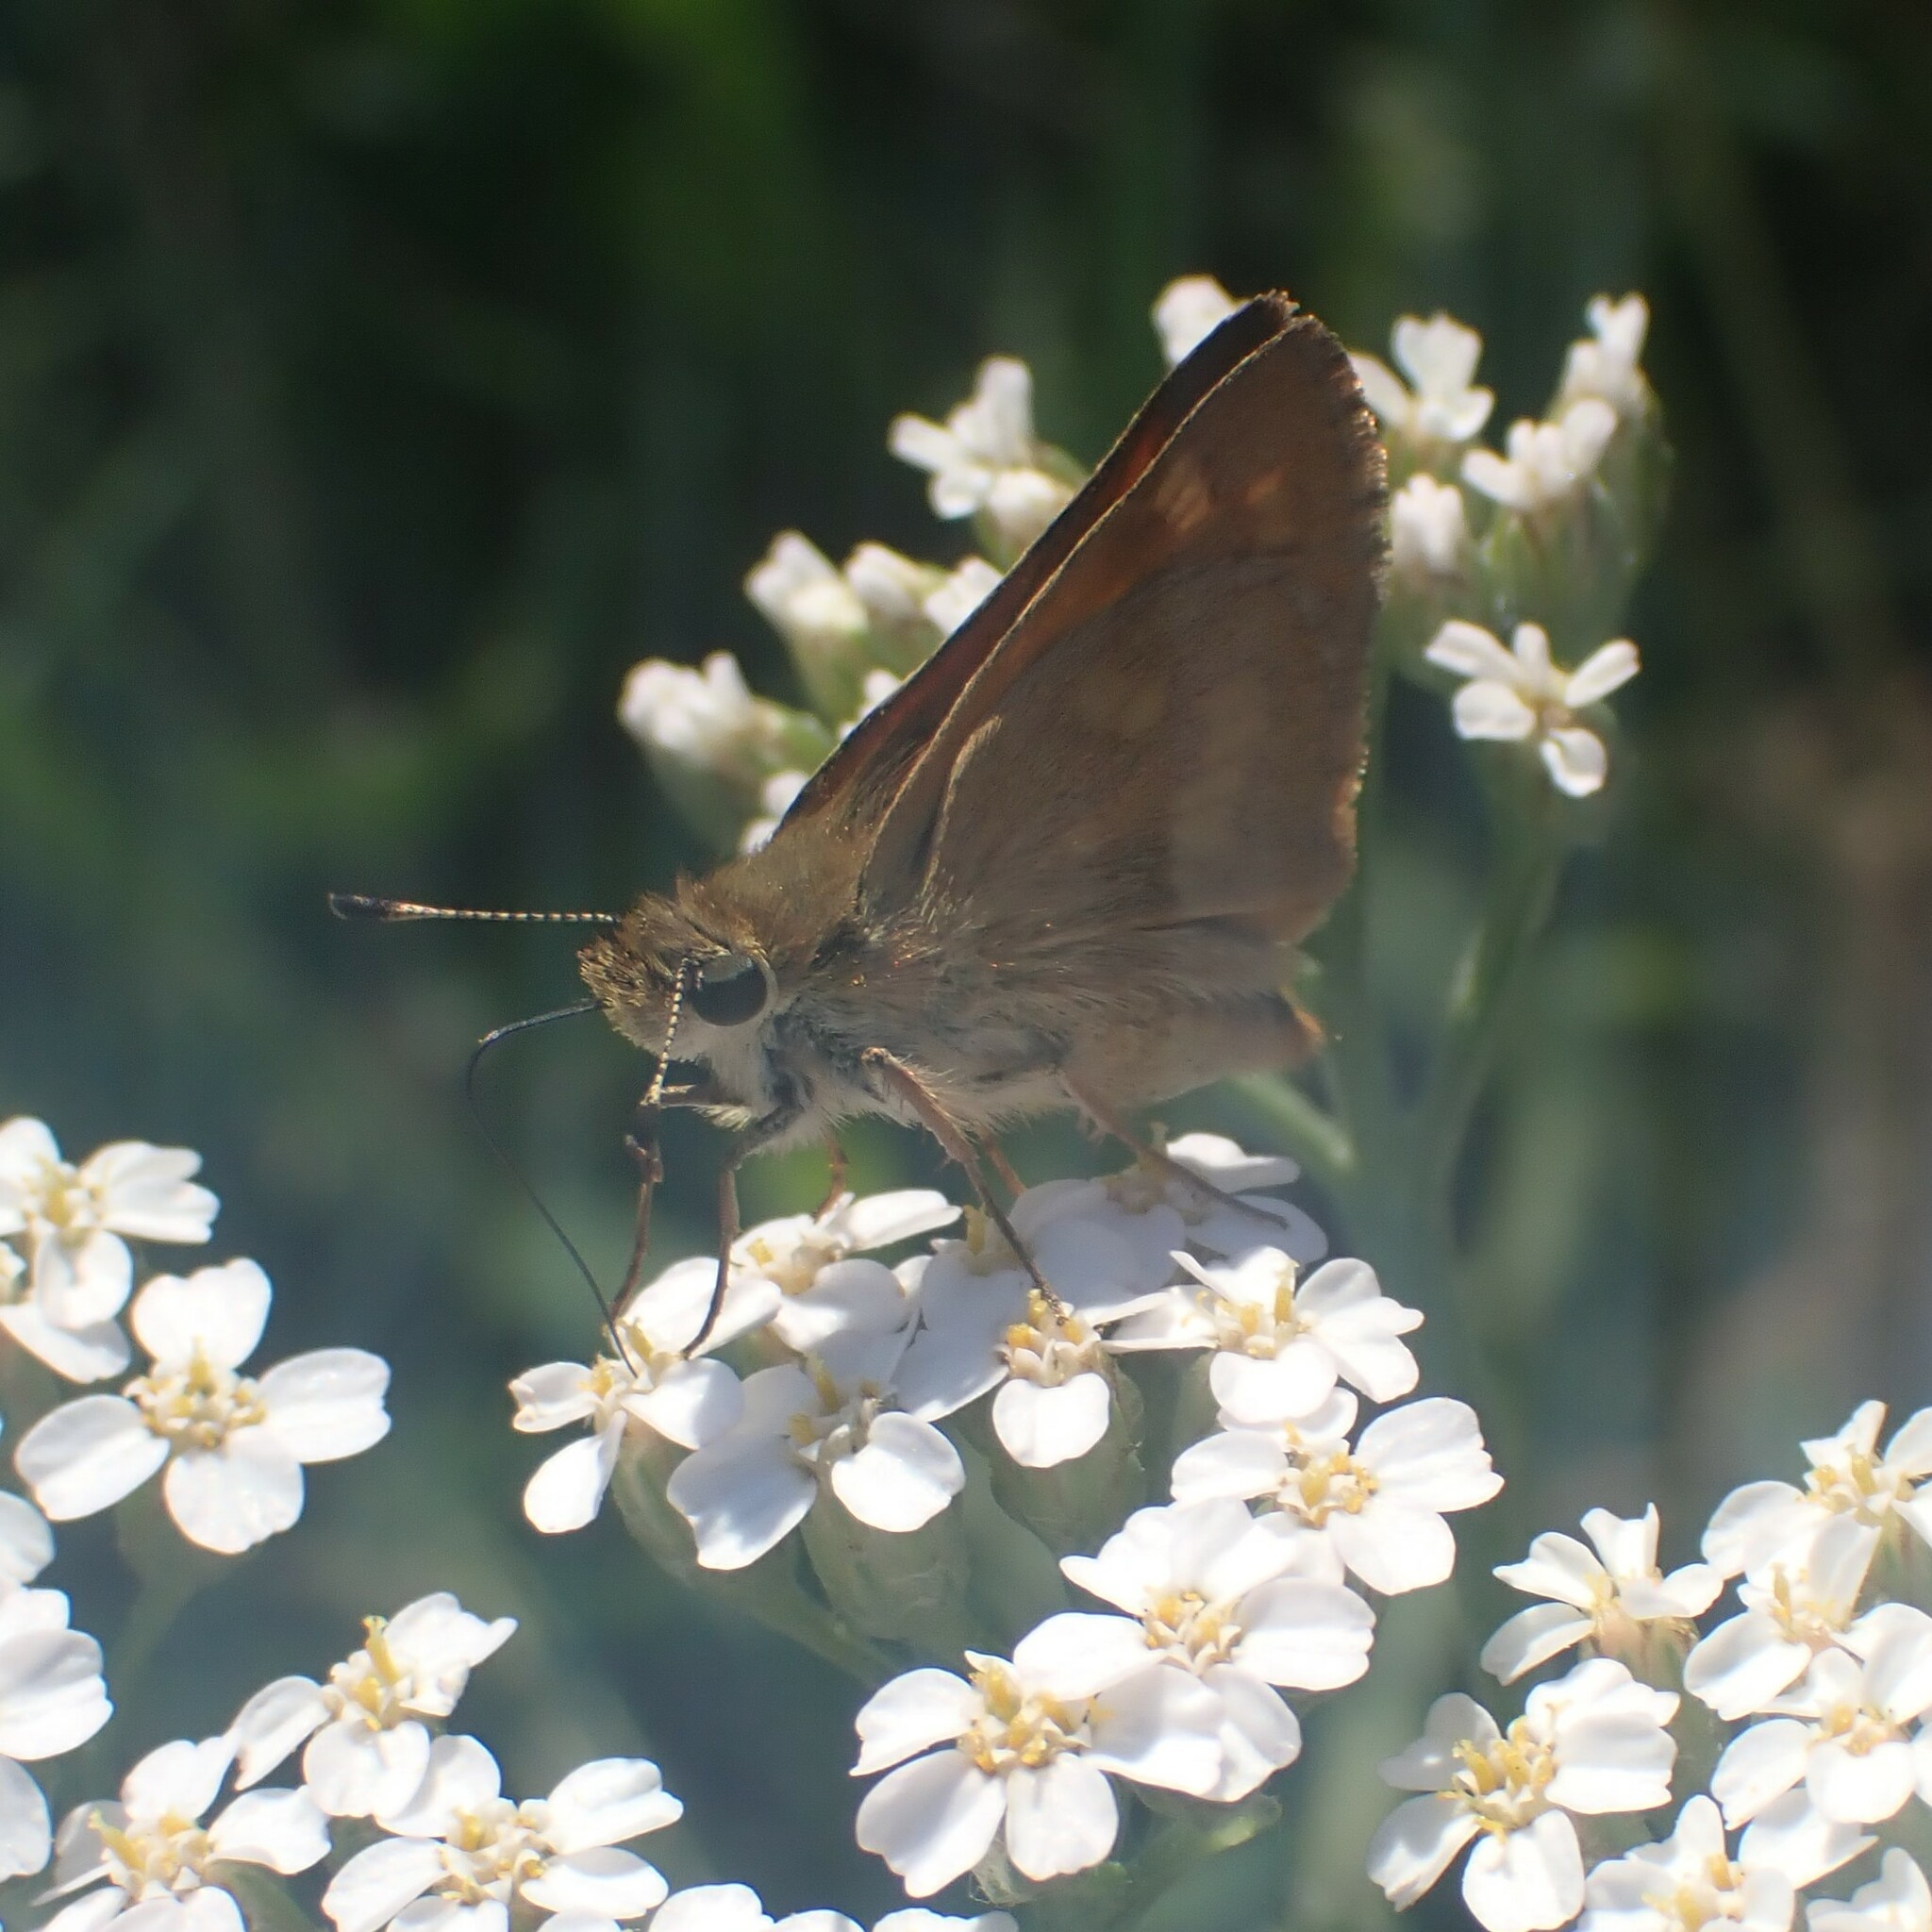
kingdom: Animalia
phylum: Arthropoda
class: Insecta
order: Lepidoptera
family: Hesperiidae
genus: Ochlodes
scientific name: Ochlodes sylvanoides
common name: Woodland skipper
